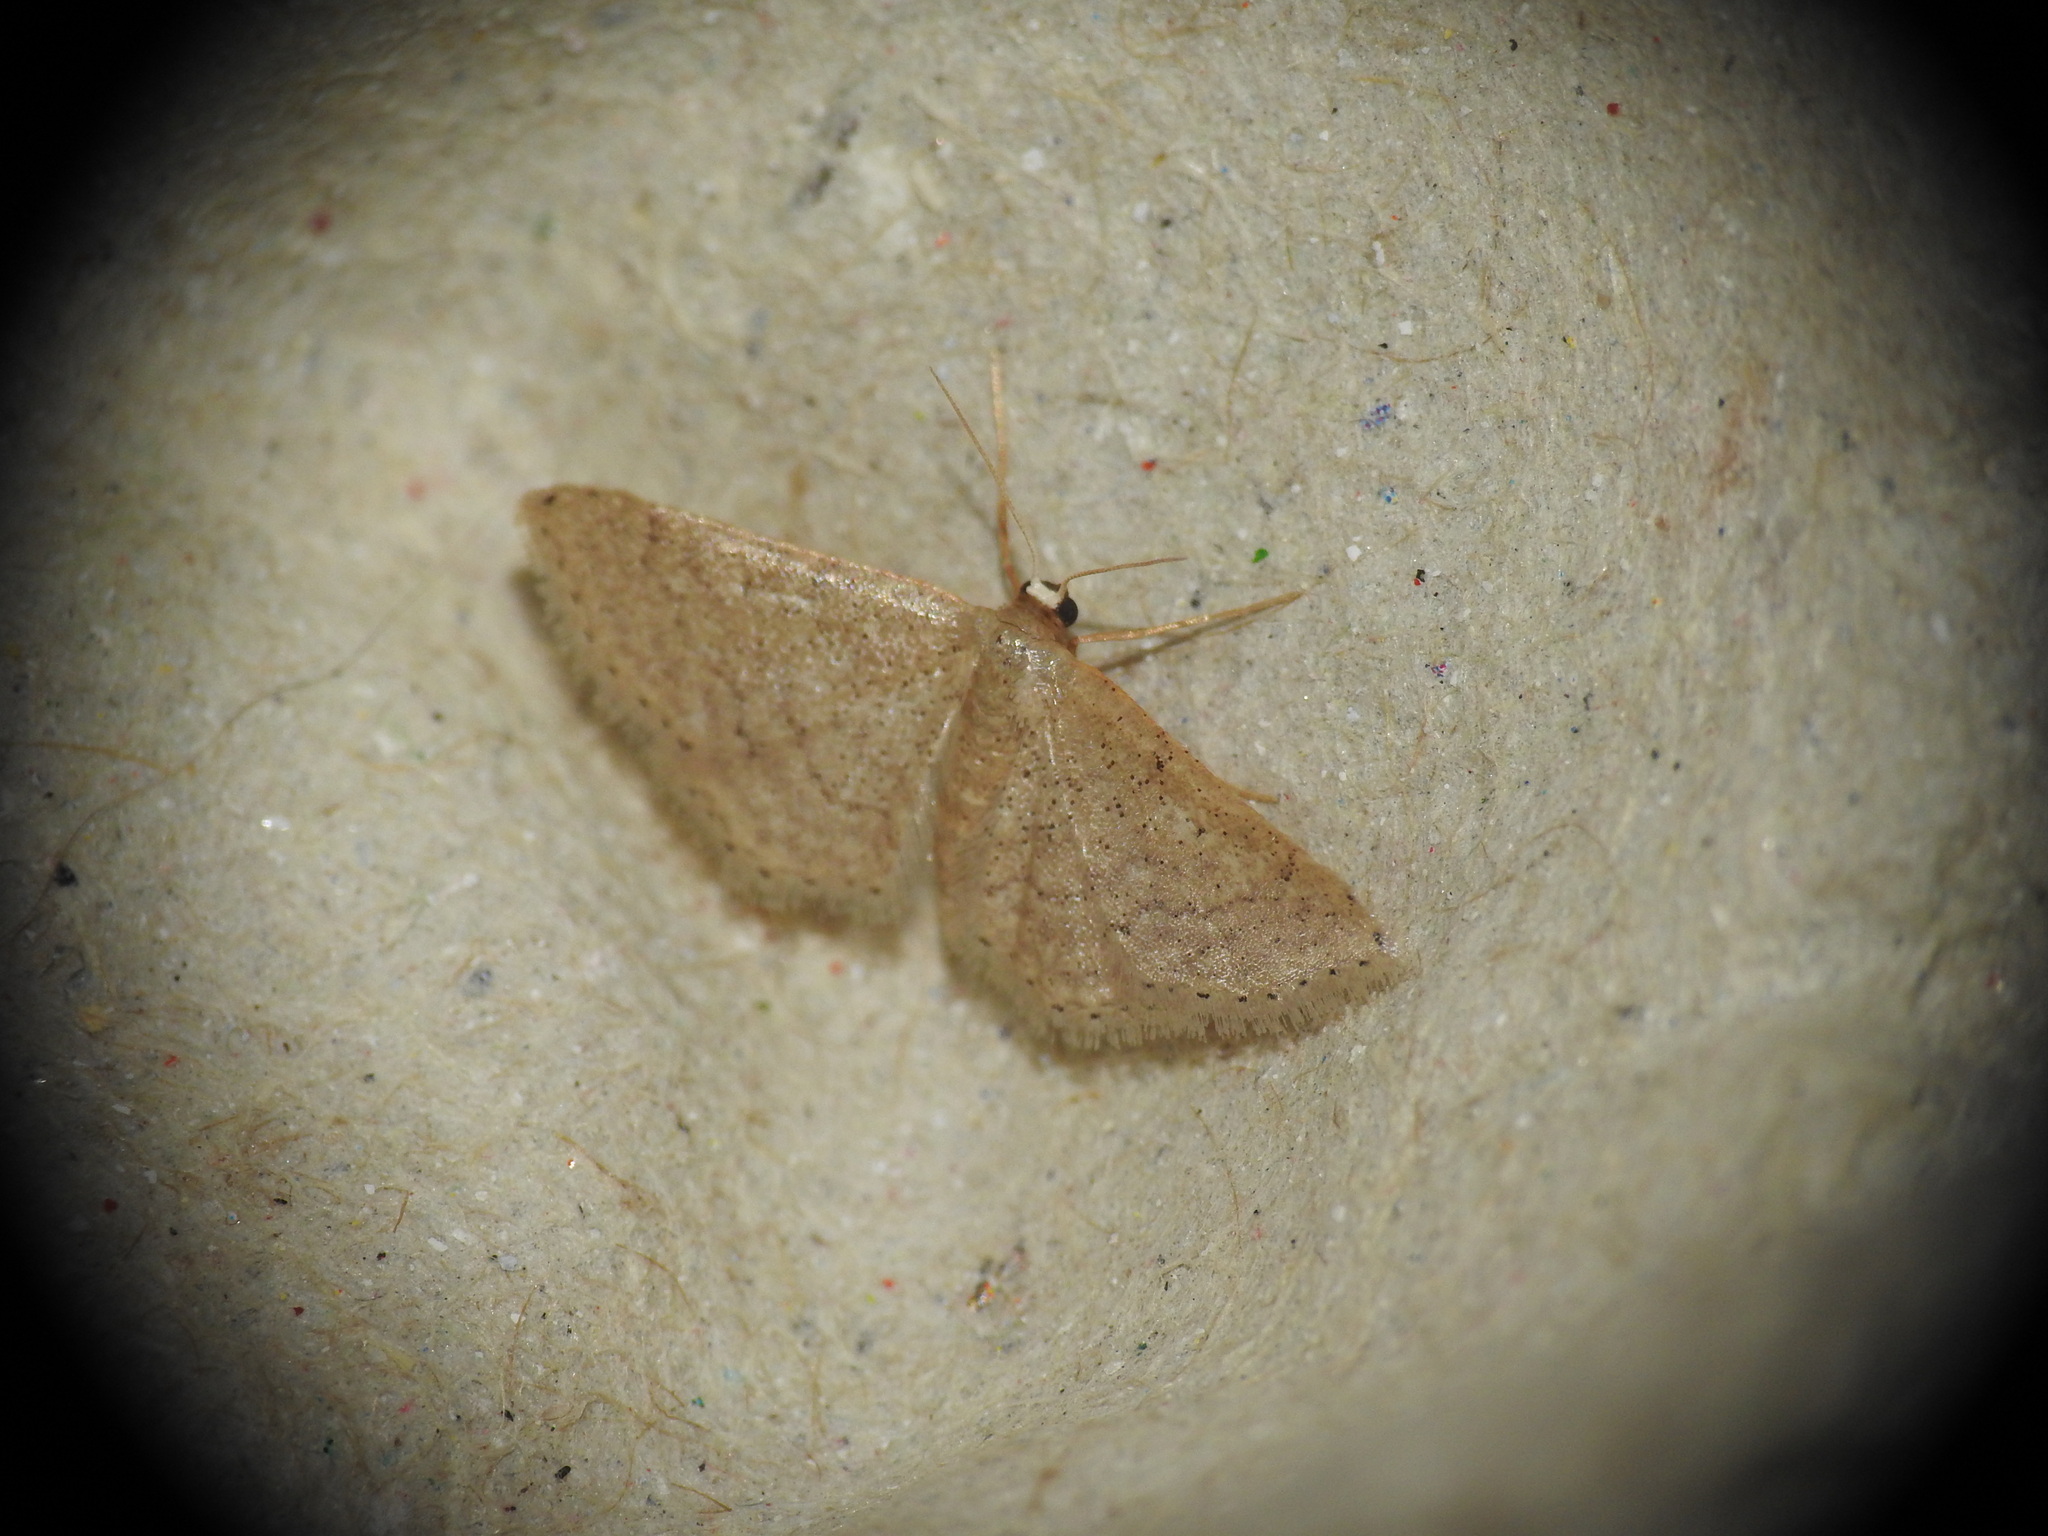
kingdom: Animalia
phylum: Arthropoda
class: Insecta
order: Lepidoptera
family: Geometridae
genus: Idaea
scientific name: Idaea obsoletaria
